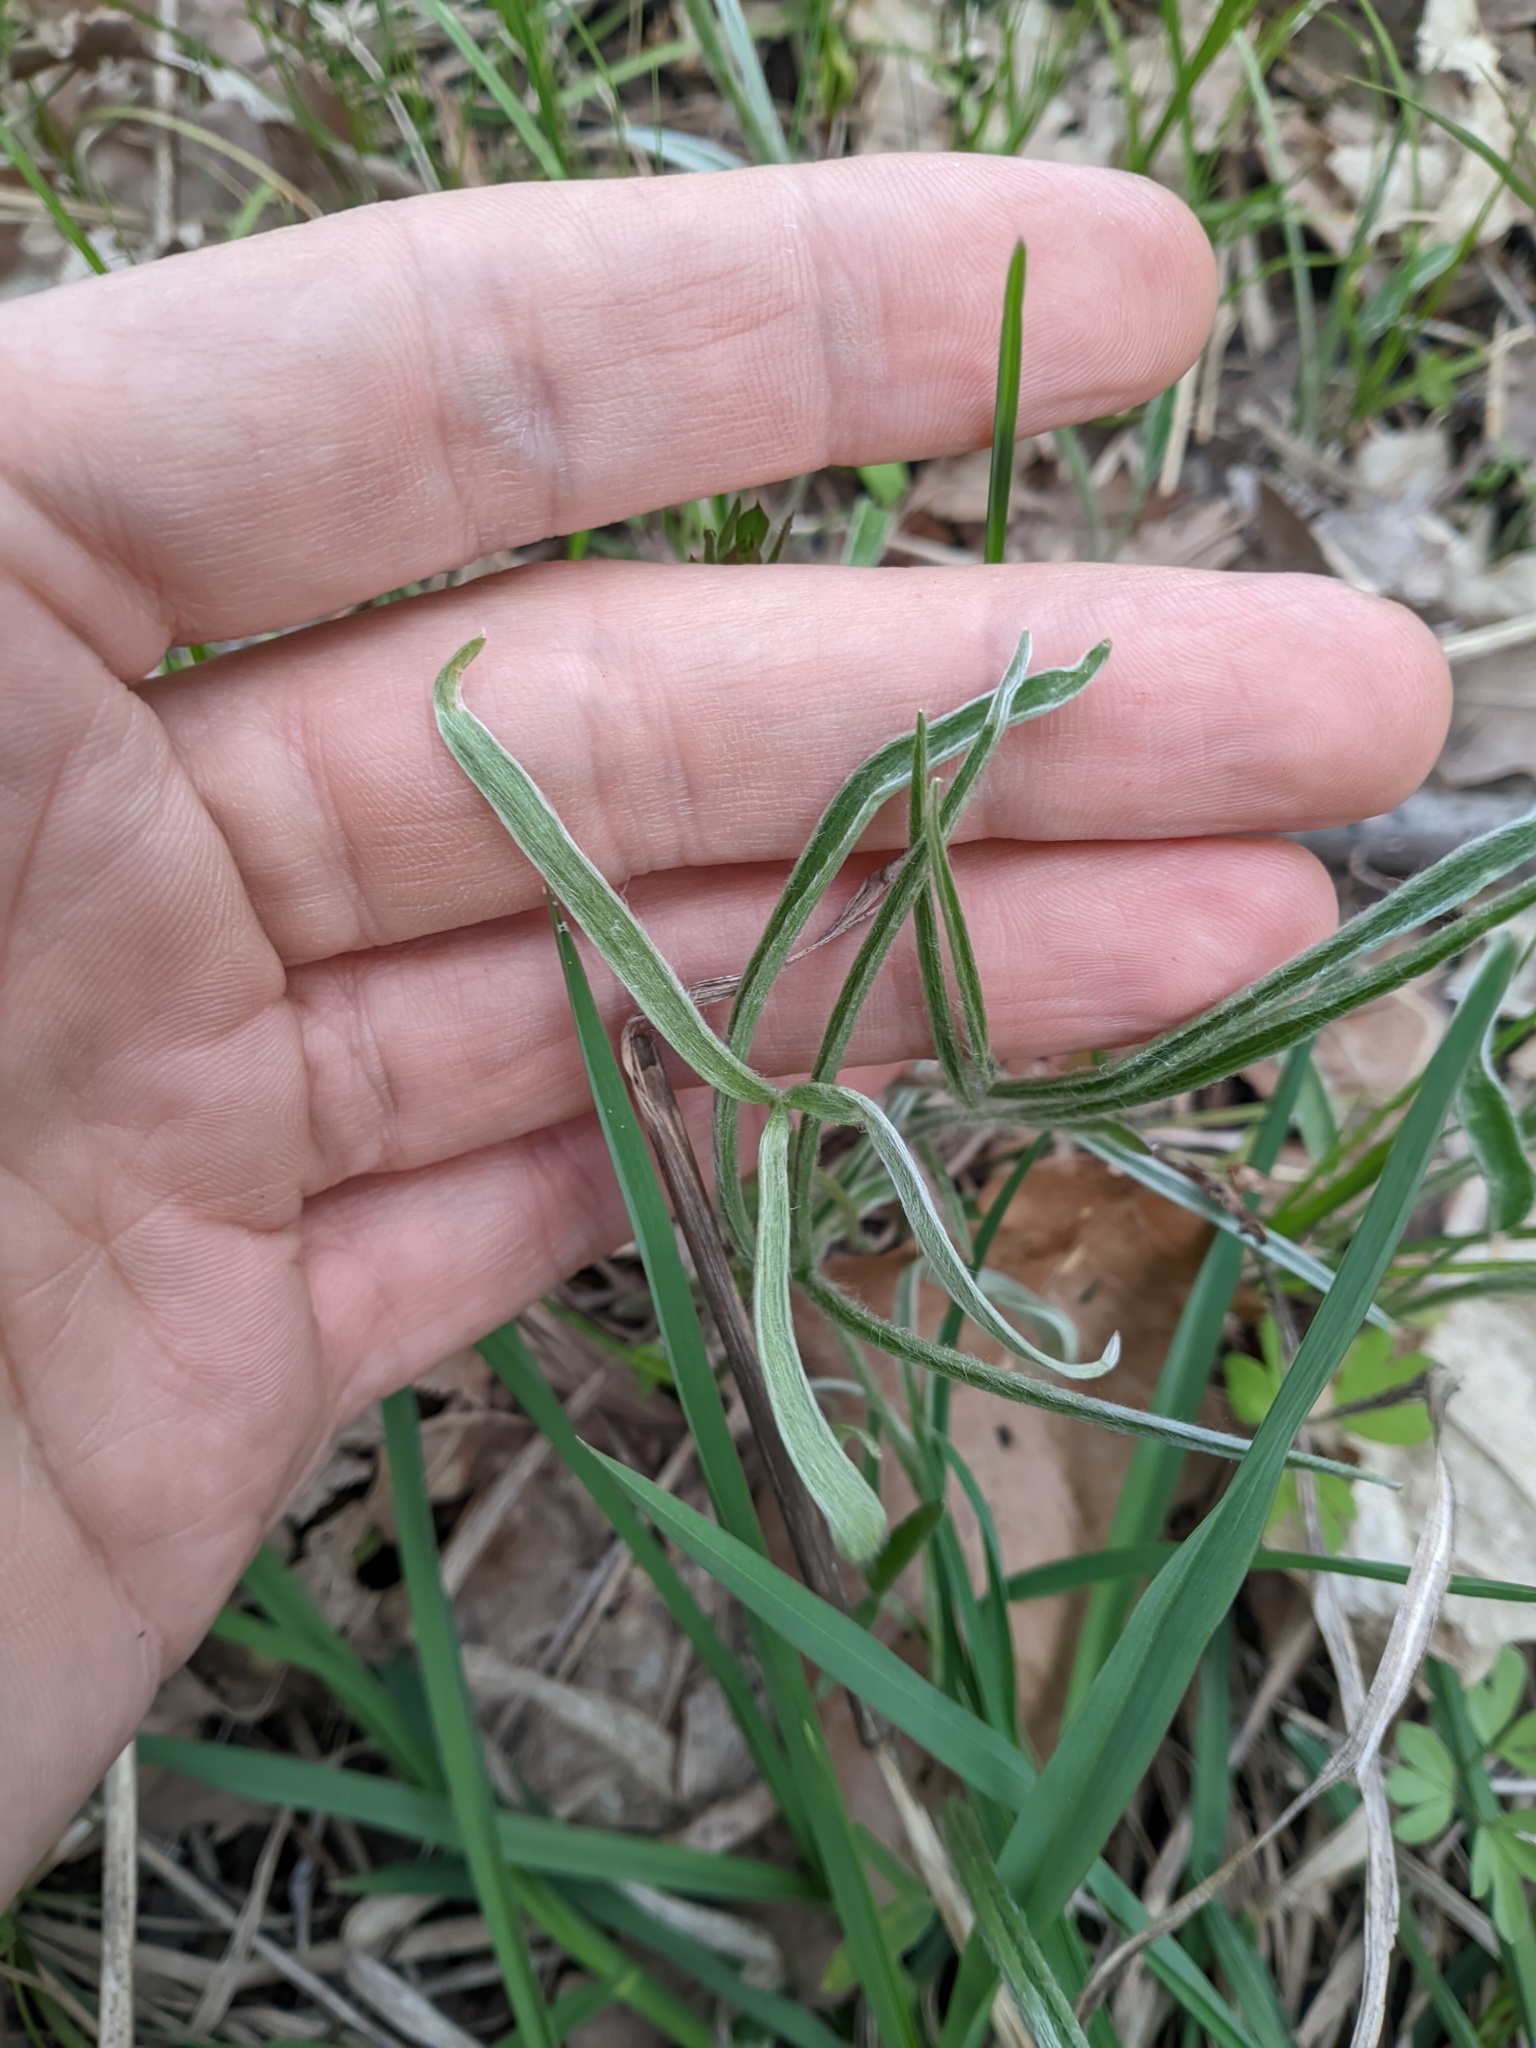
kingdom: Plantae
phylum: Tracheophyta
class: Magnoliopsida
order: Ranunculales
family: Ranunculaceae
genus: Ranunculus
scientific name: Ranunculus illyricus
